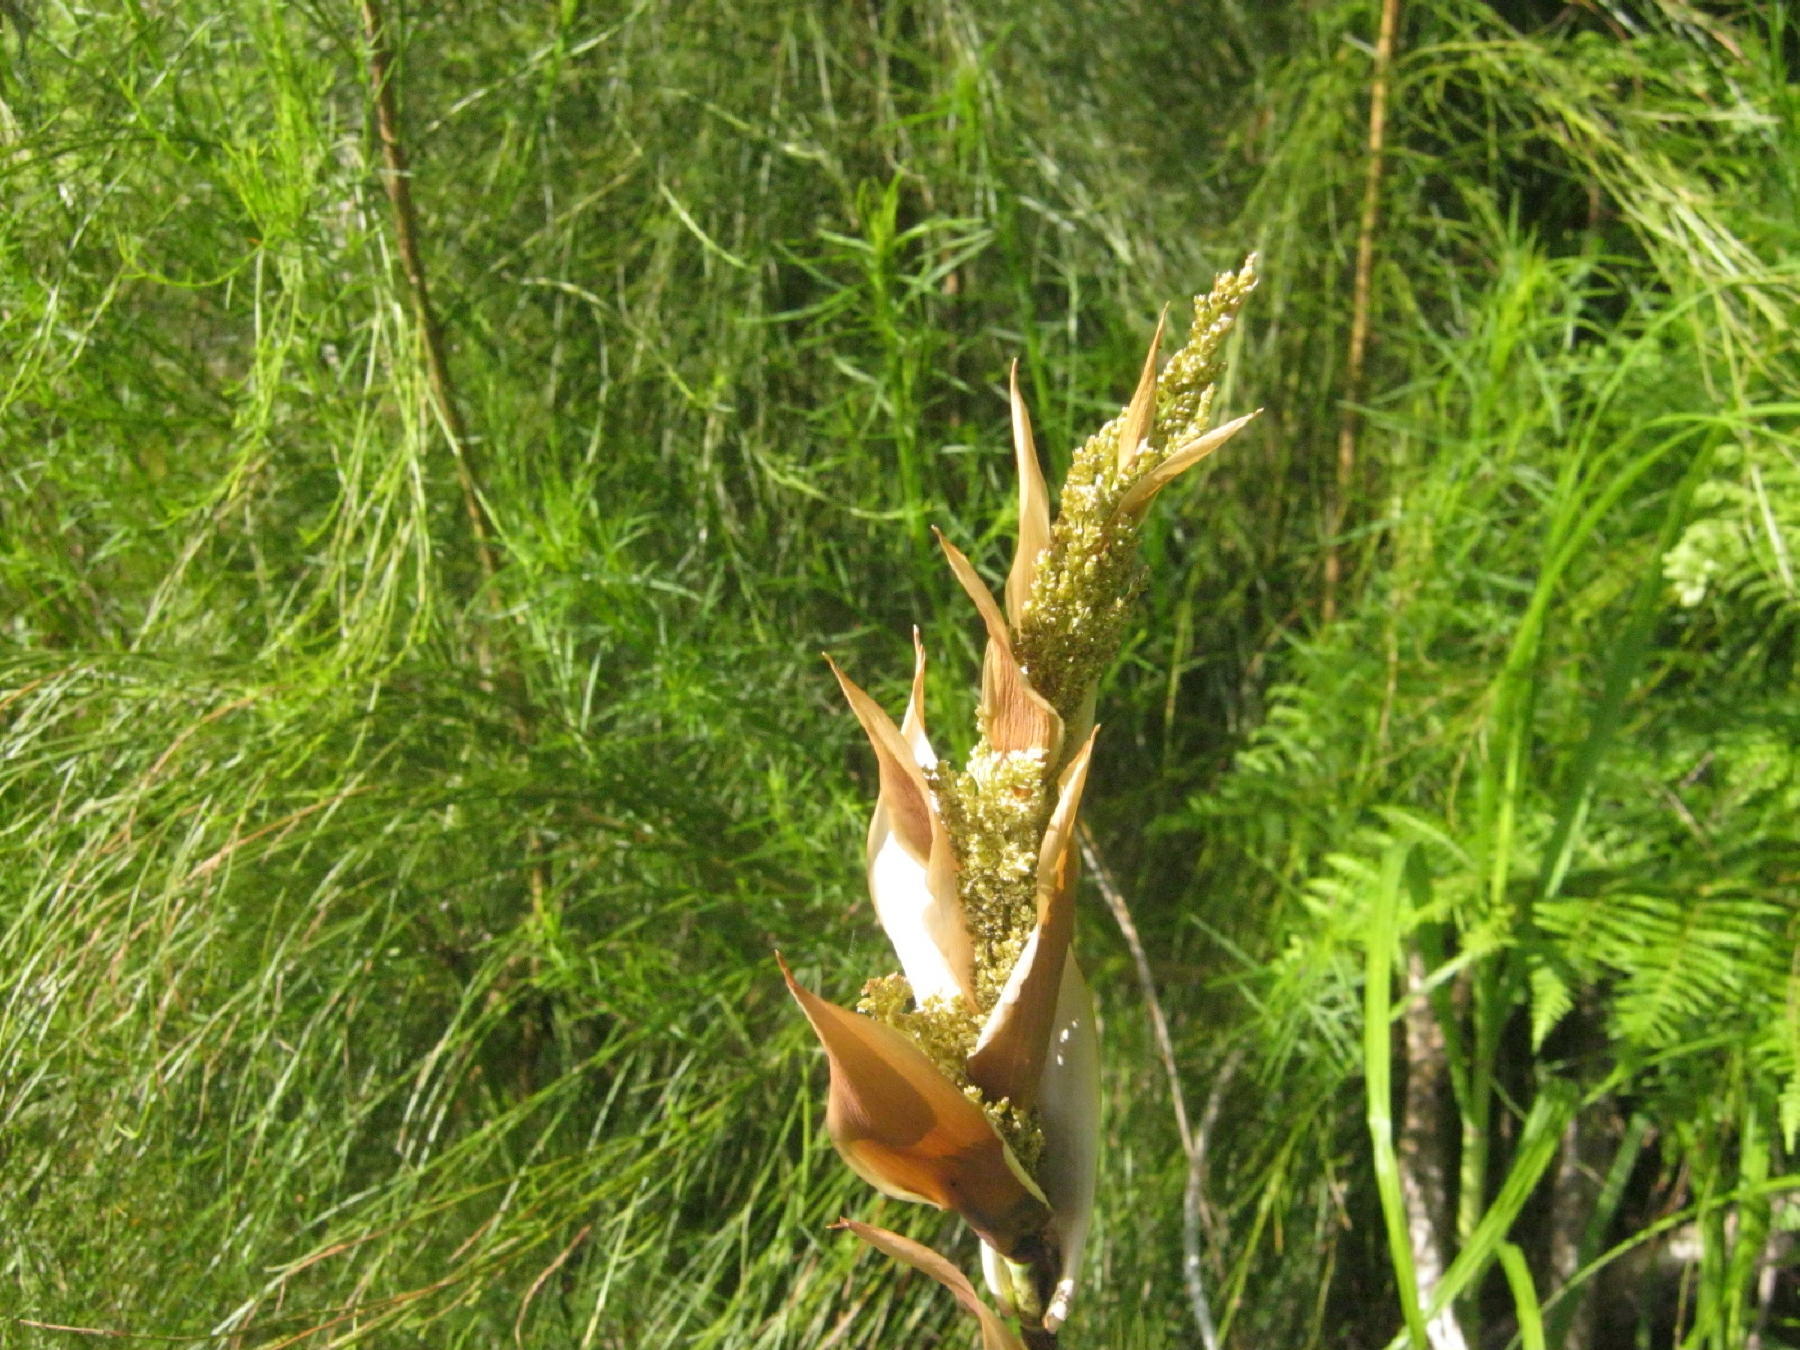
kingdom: Plantae
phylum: Tracheophyta
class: Liliopsida
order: Poales
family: Restionaceae
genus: Elegia
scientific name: Elegia capensis
